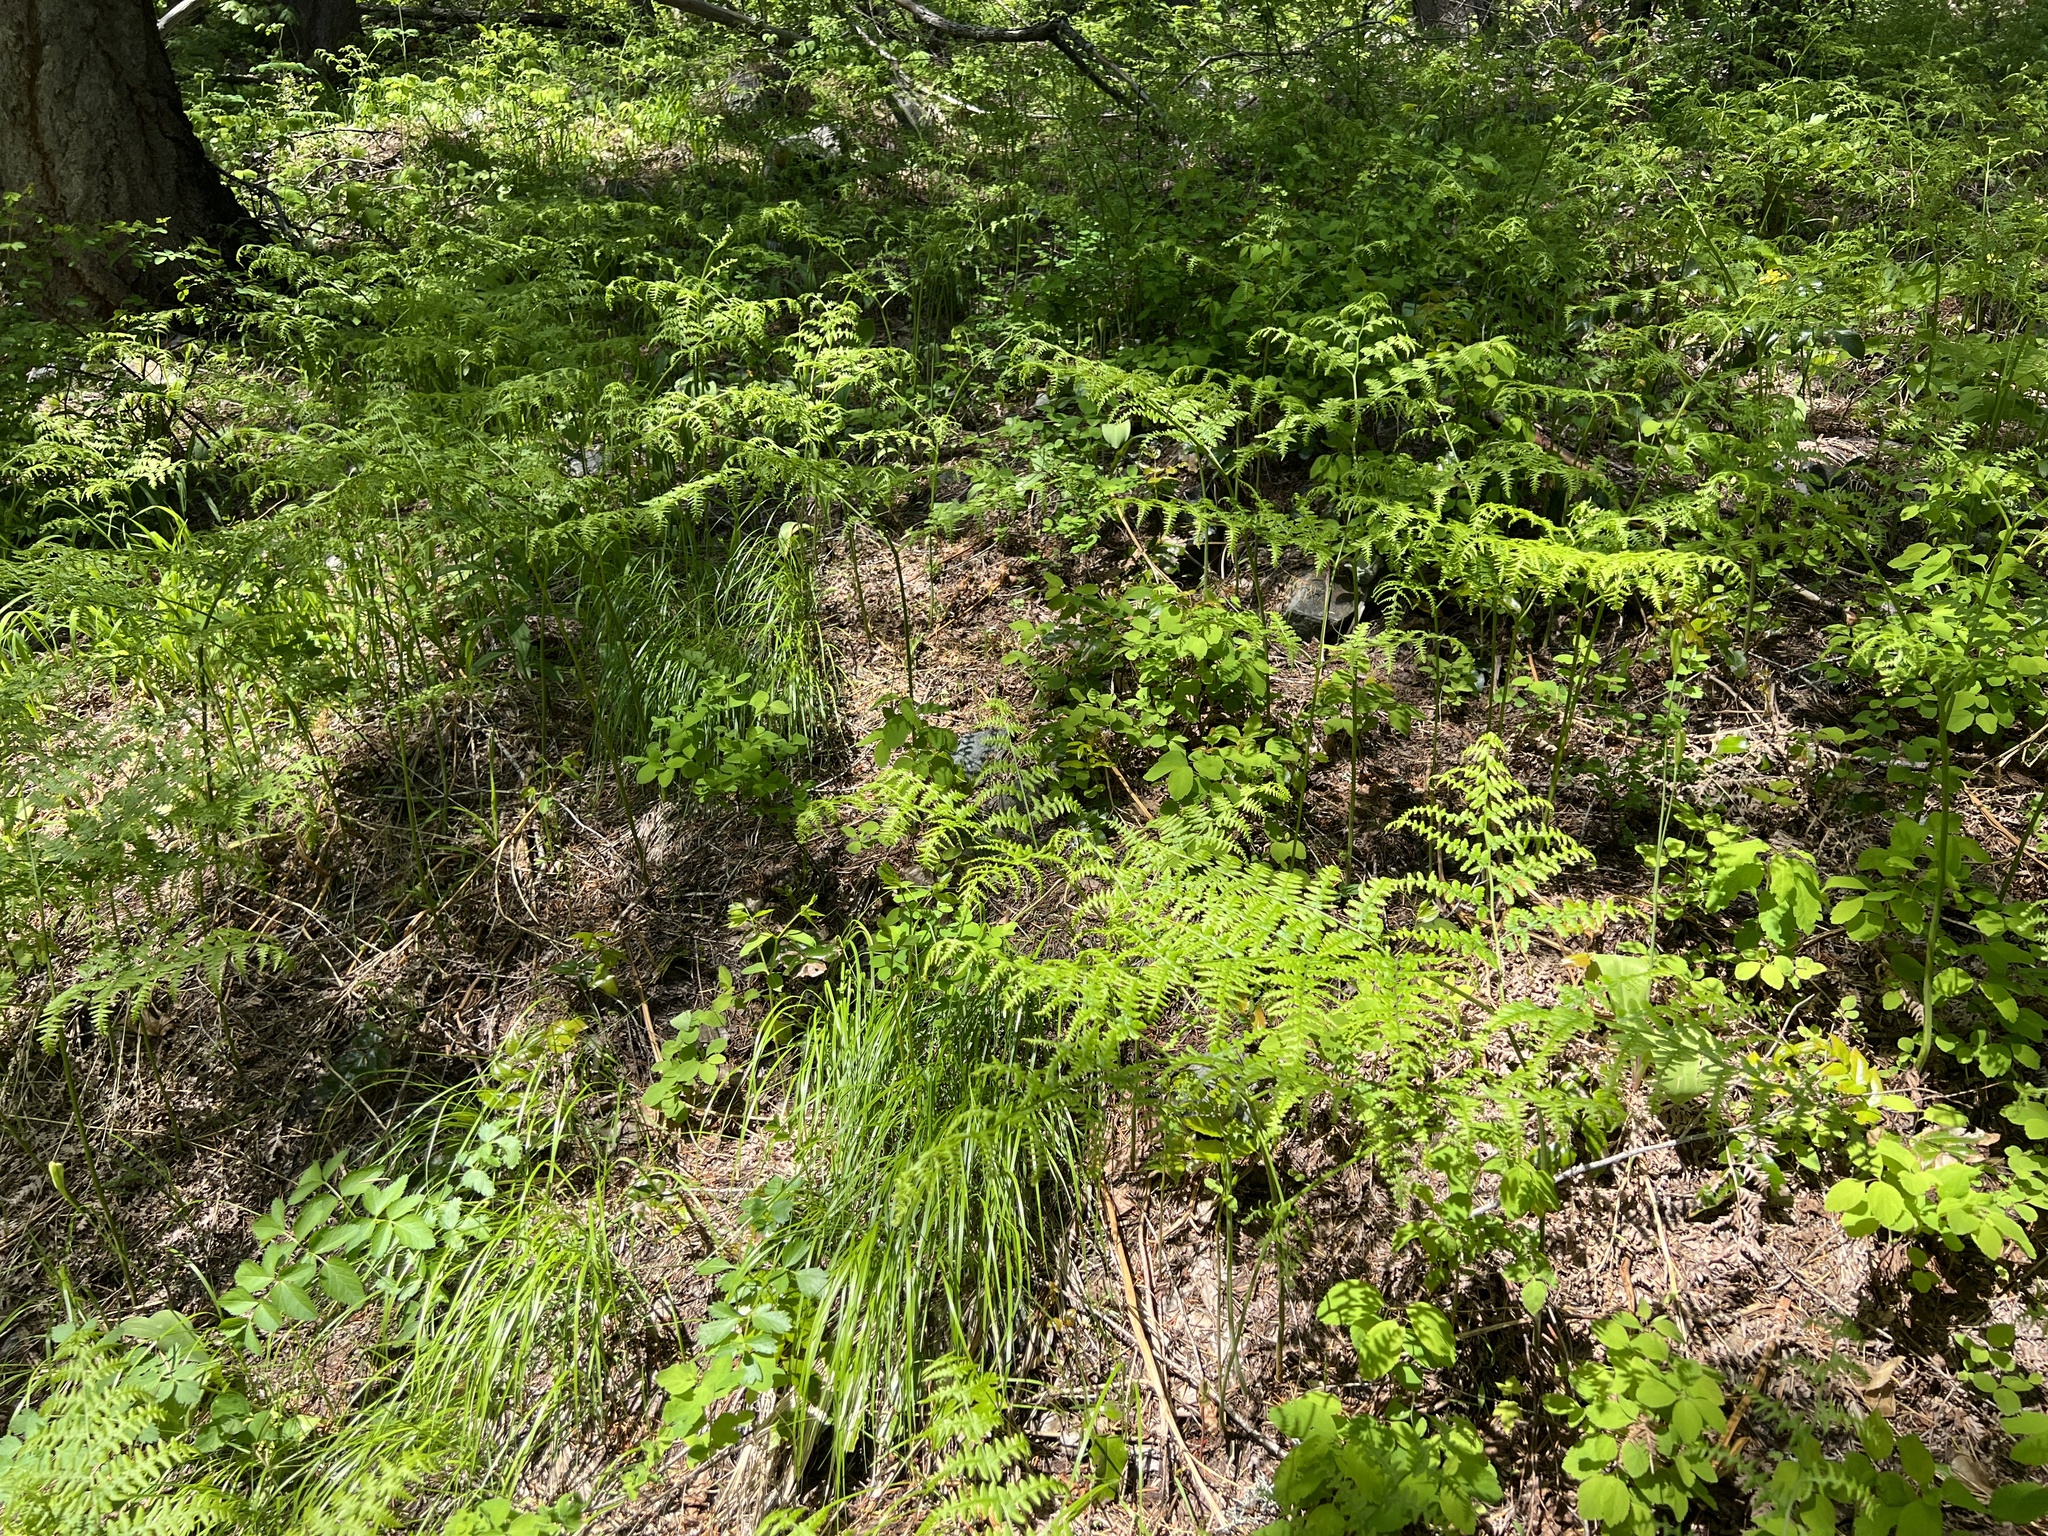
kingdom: Plantae
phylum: Tracheophyta
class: Polypodiopsida
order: Polypodiales
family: Dennstaedtiaceae
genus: Pteridium
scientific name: Pteridium aquilinum
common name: Bracken
